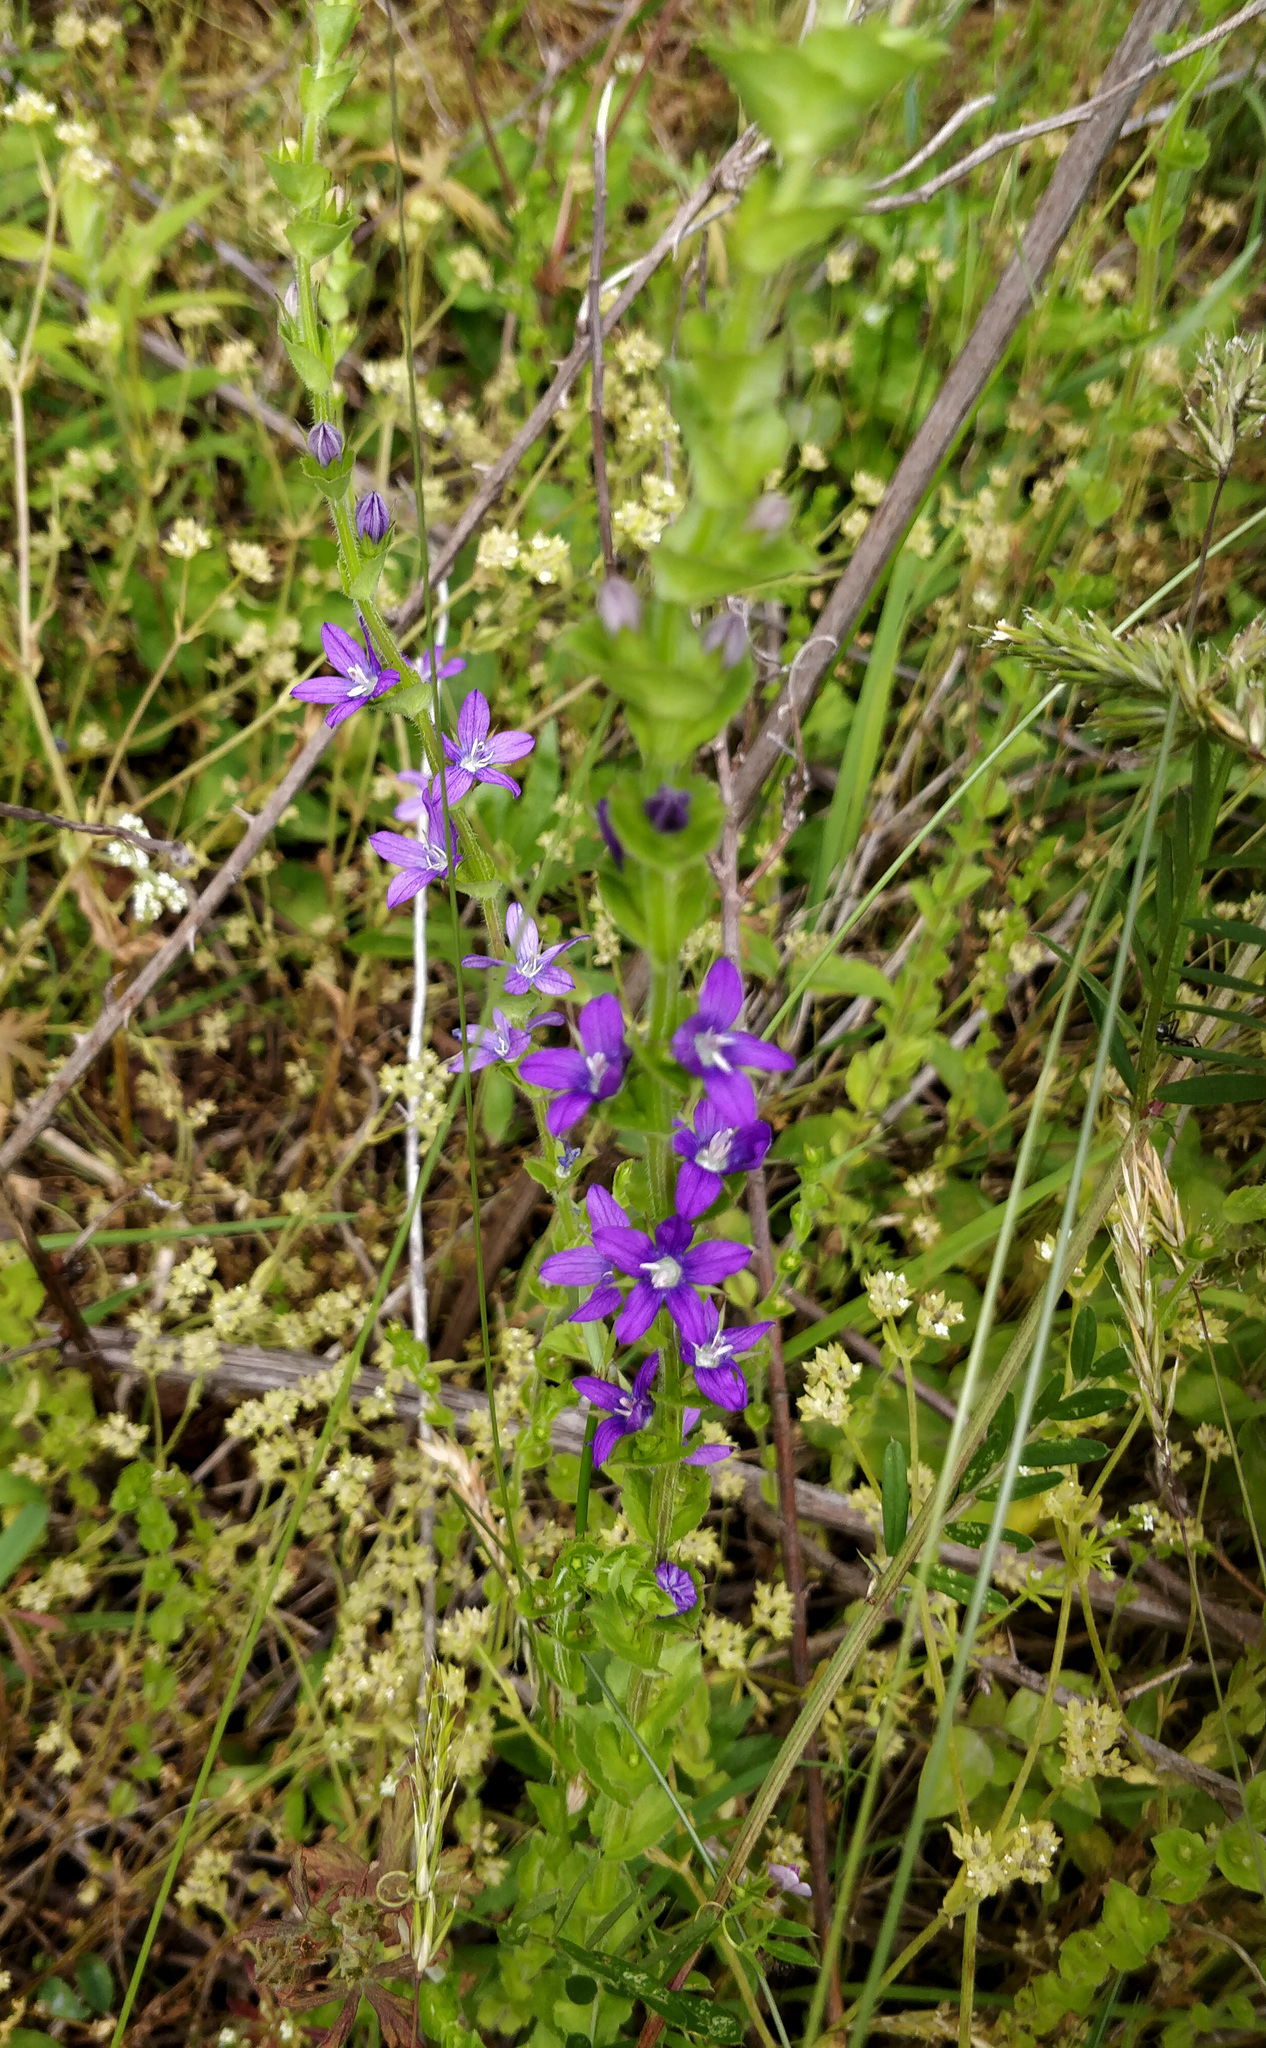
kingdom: Plantae
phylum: Tracheophyta
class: Magnoliopsida
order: Asterales
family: Campanulaceae
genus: Triodanis
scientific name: Triodanis perfoliata
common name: Clasping venus' looking-glass
